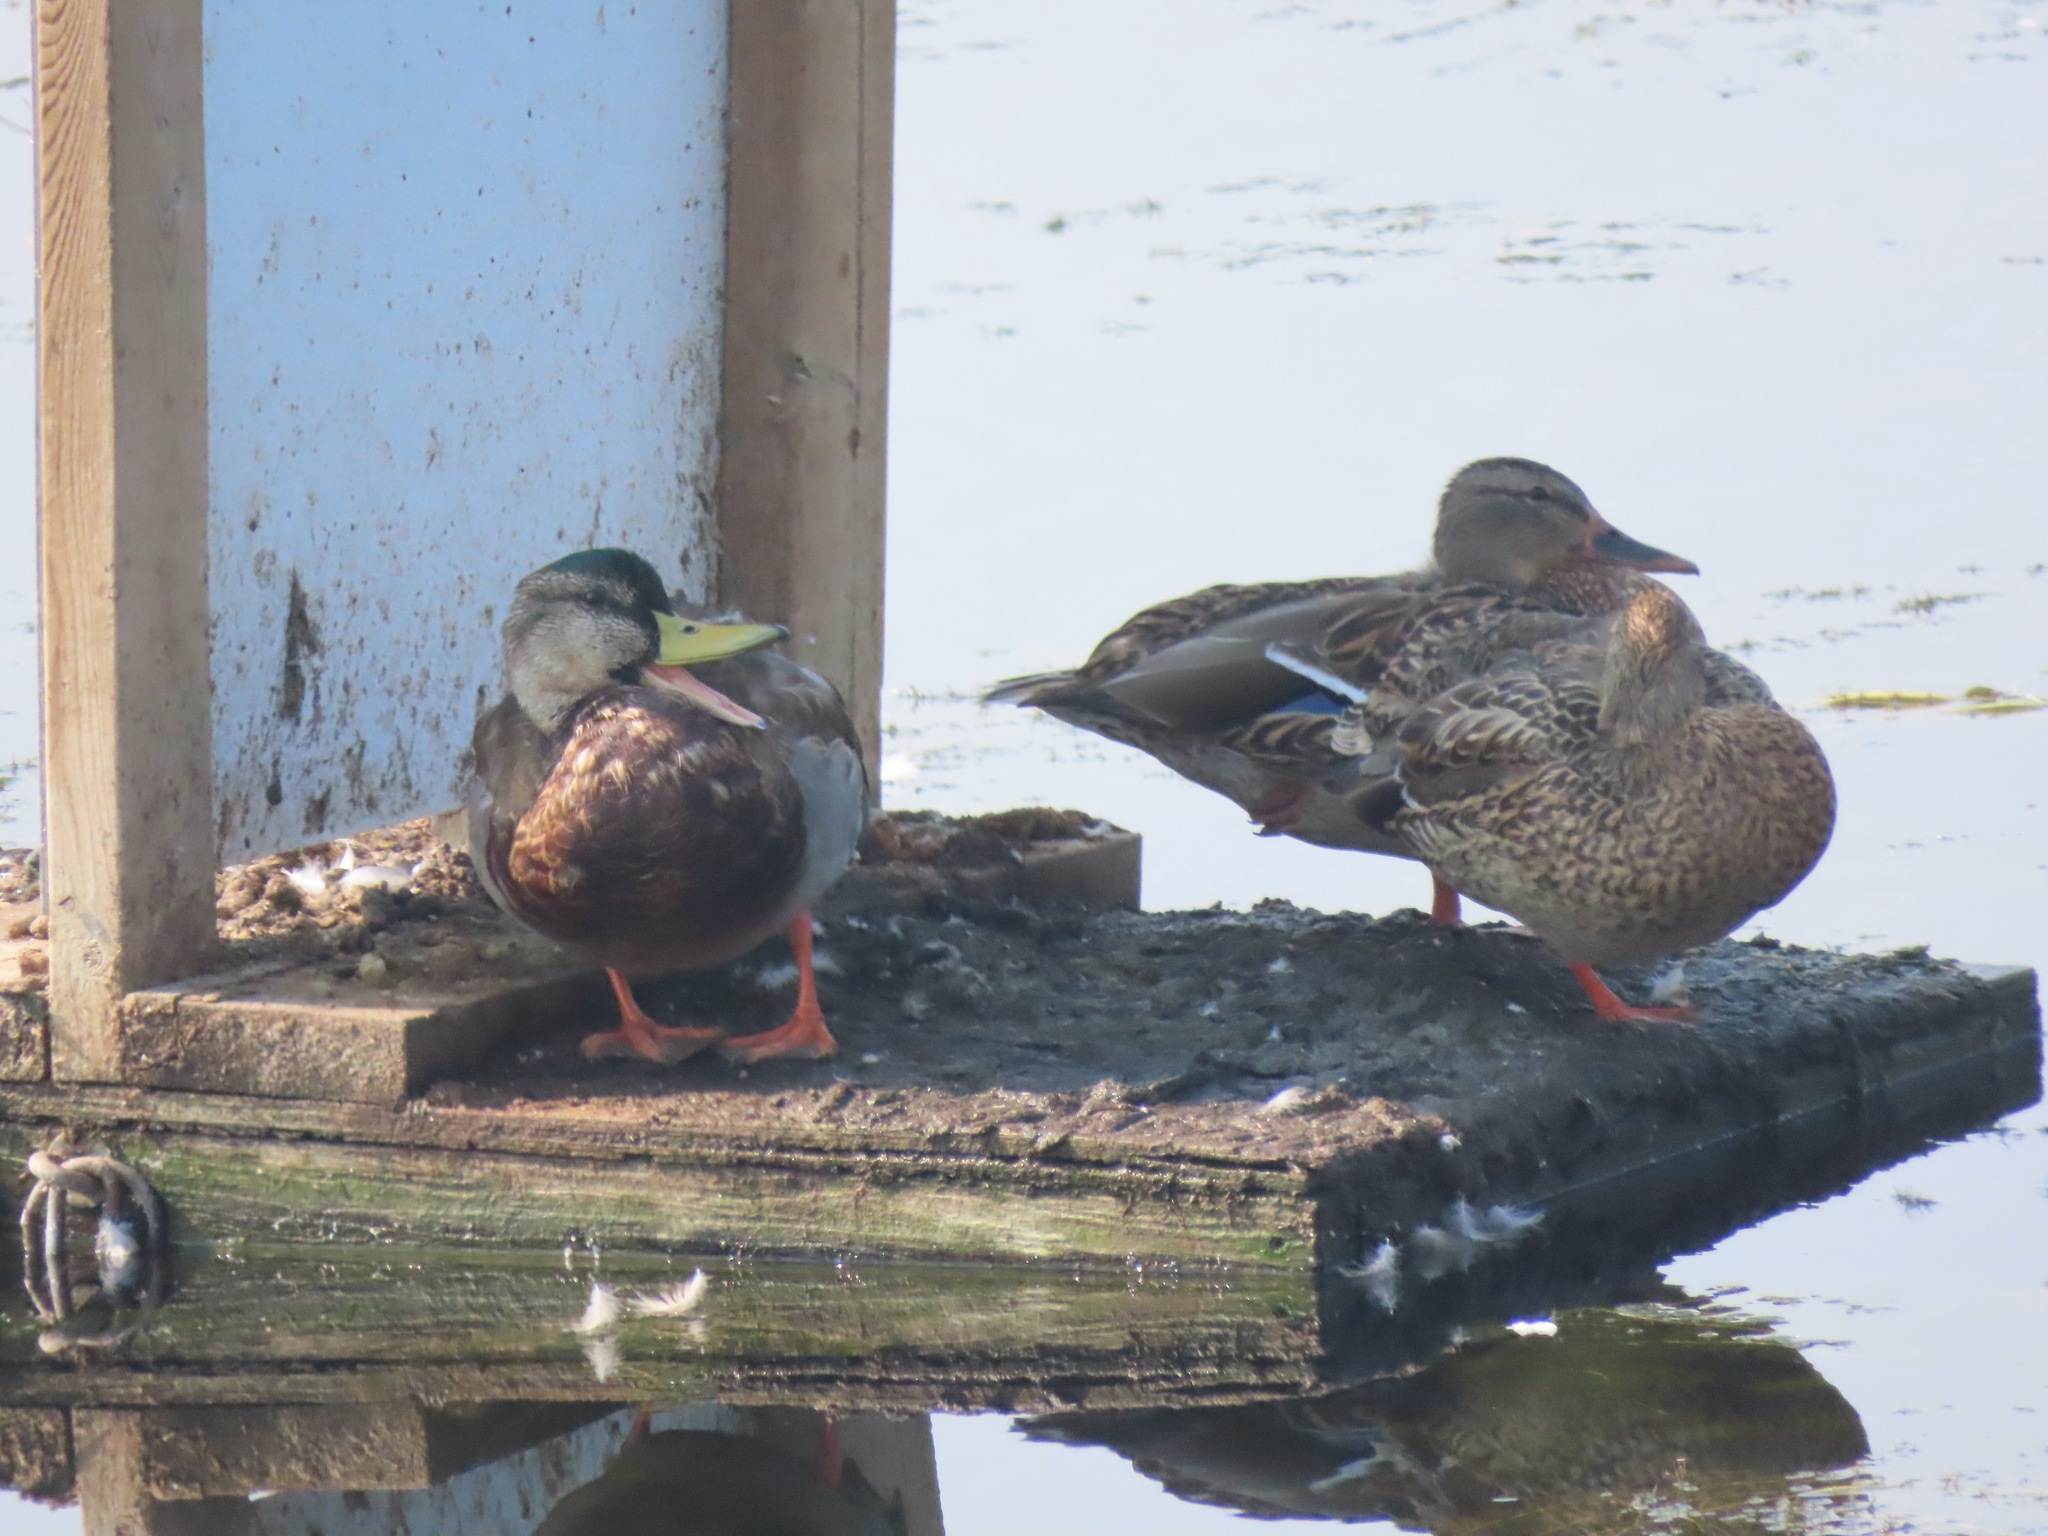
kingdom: Animalia
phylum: Chordata
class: Aves
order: Anseriformes
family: Anatidae
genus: Anas
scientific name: Anas platyrhynchos
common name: Mallard
